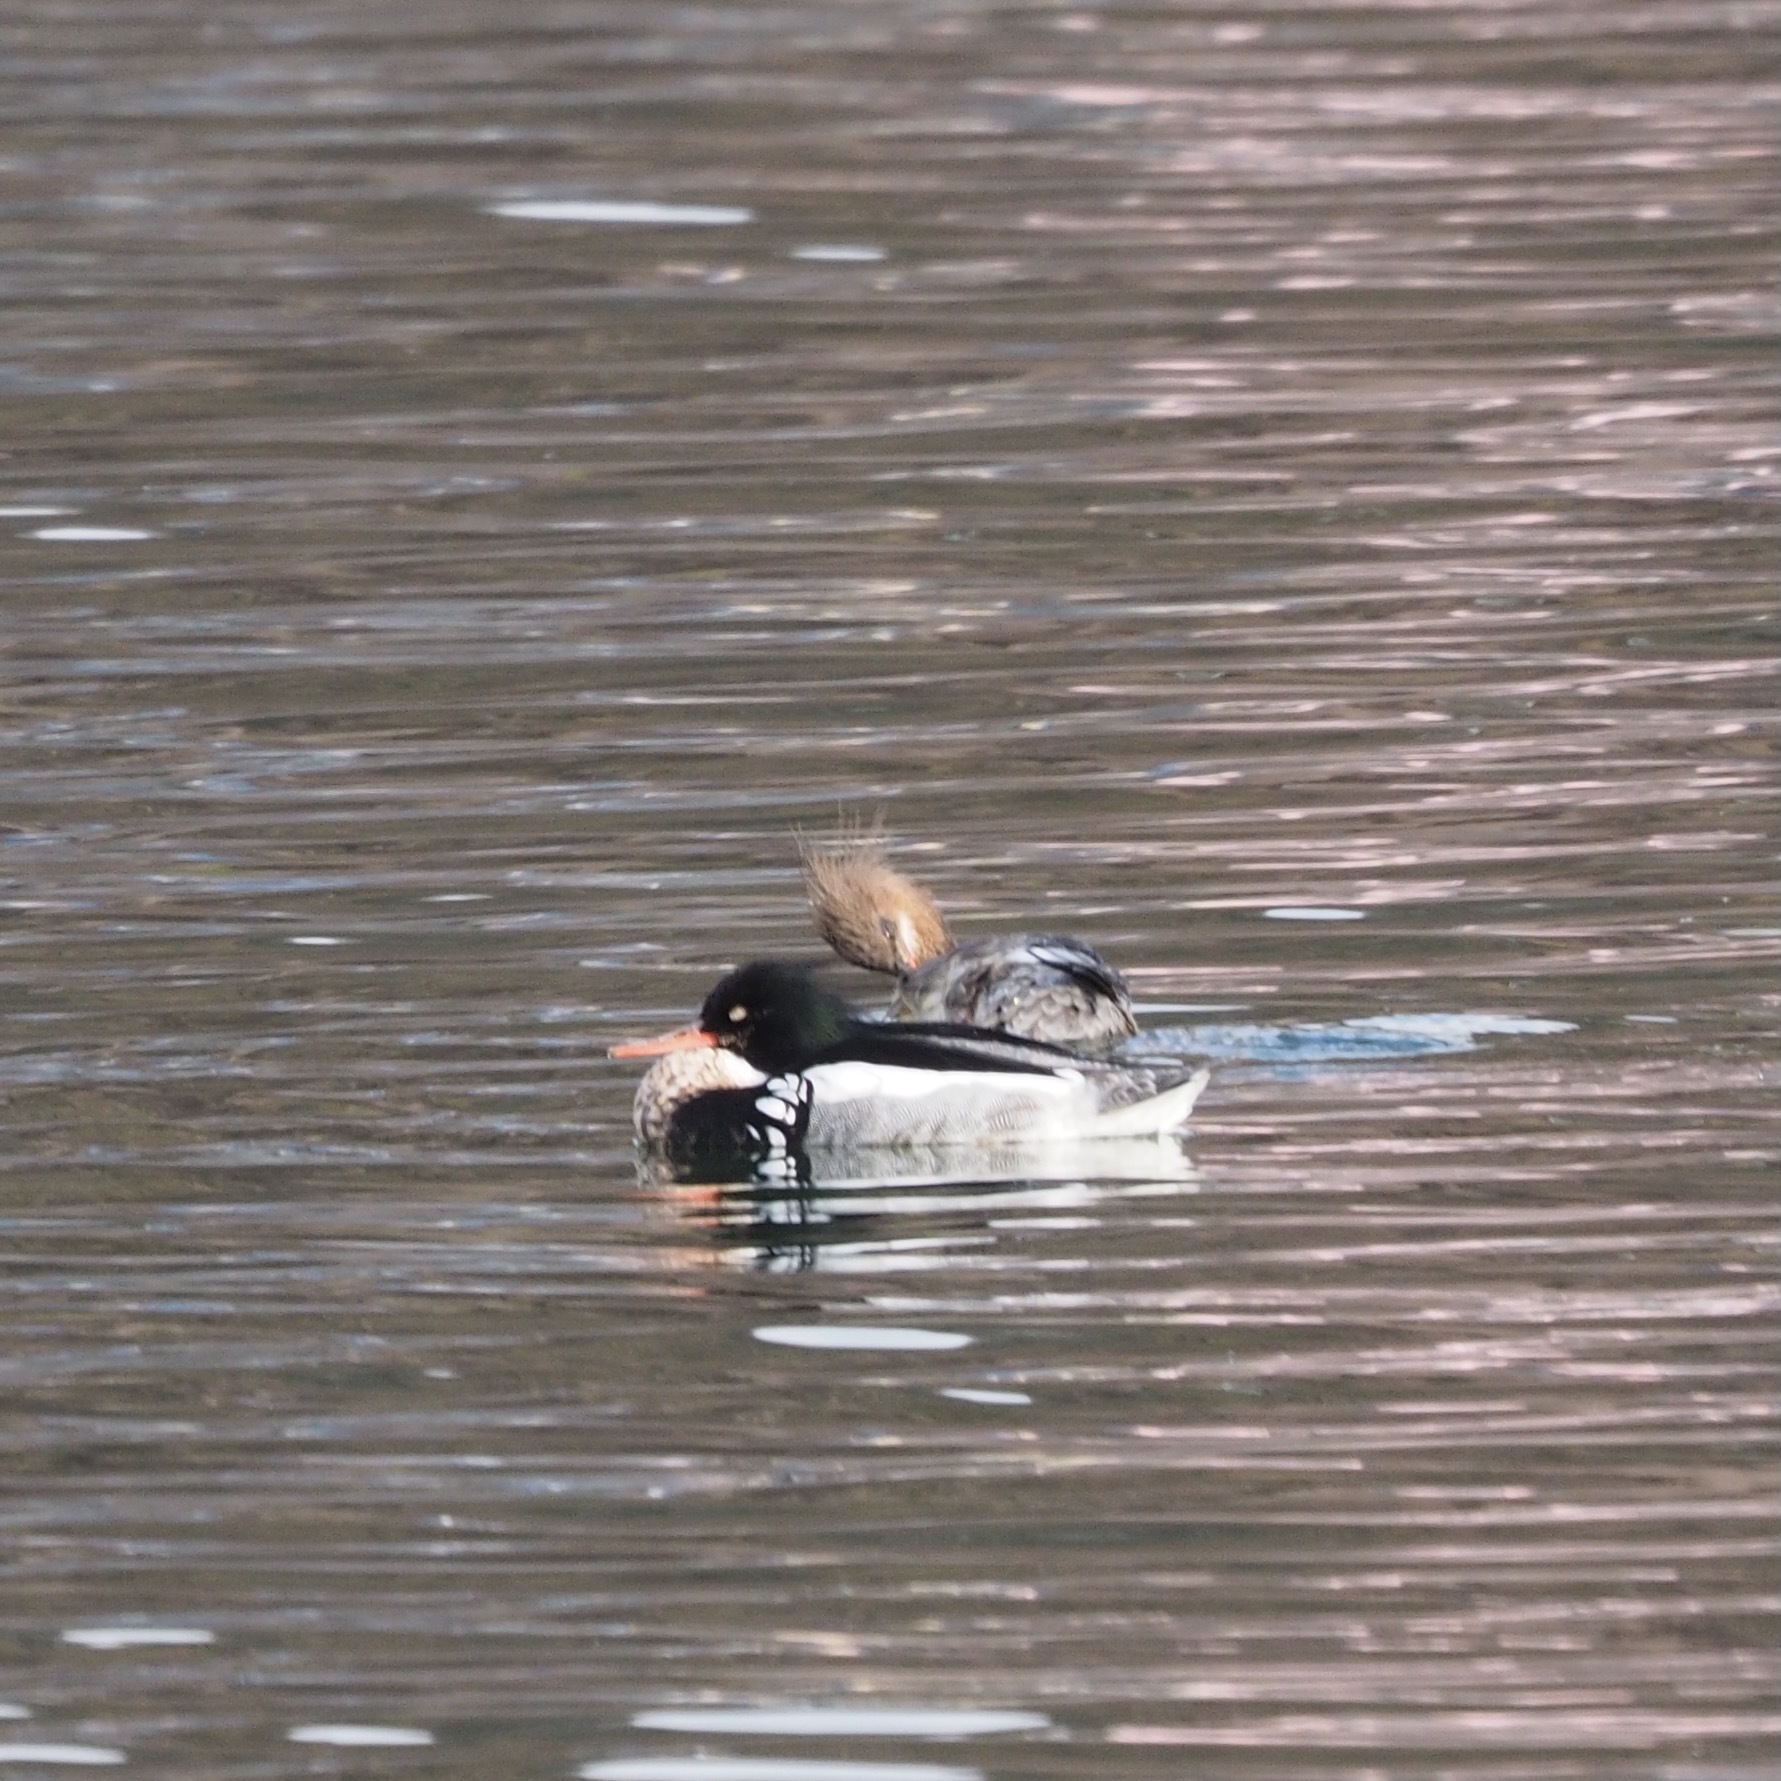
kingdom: Animalia
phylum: Chordata
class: Aves
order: Anseriformes
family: Anatidae
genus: Mergus
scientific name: Mergus serrator
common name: Red-breasted merganser
